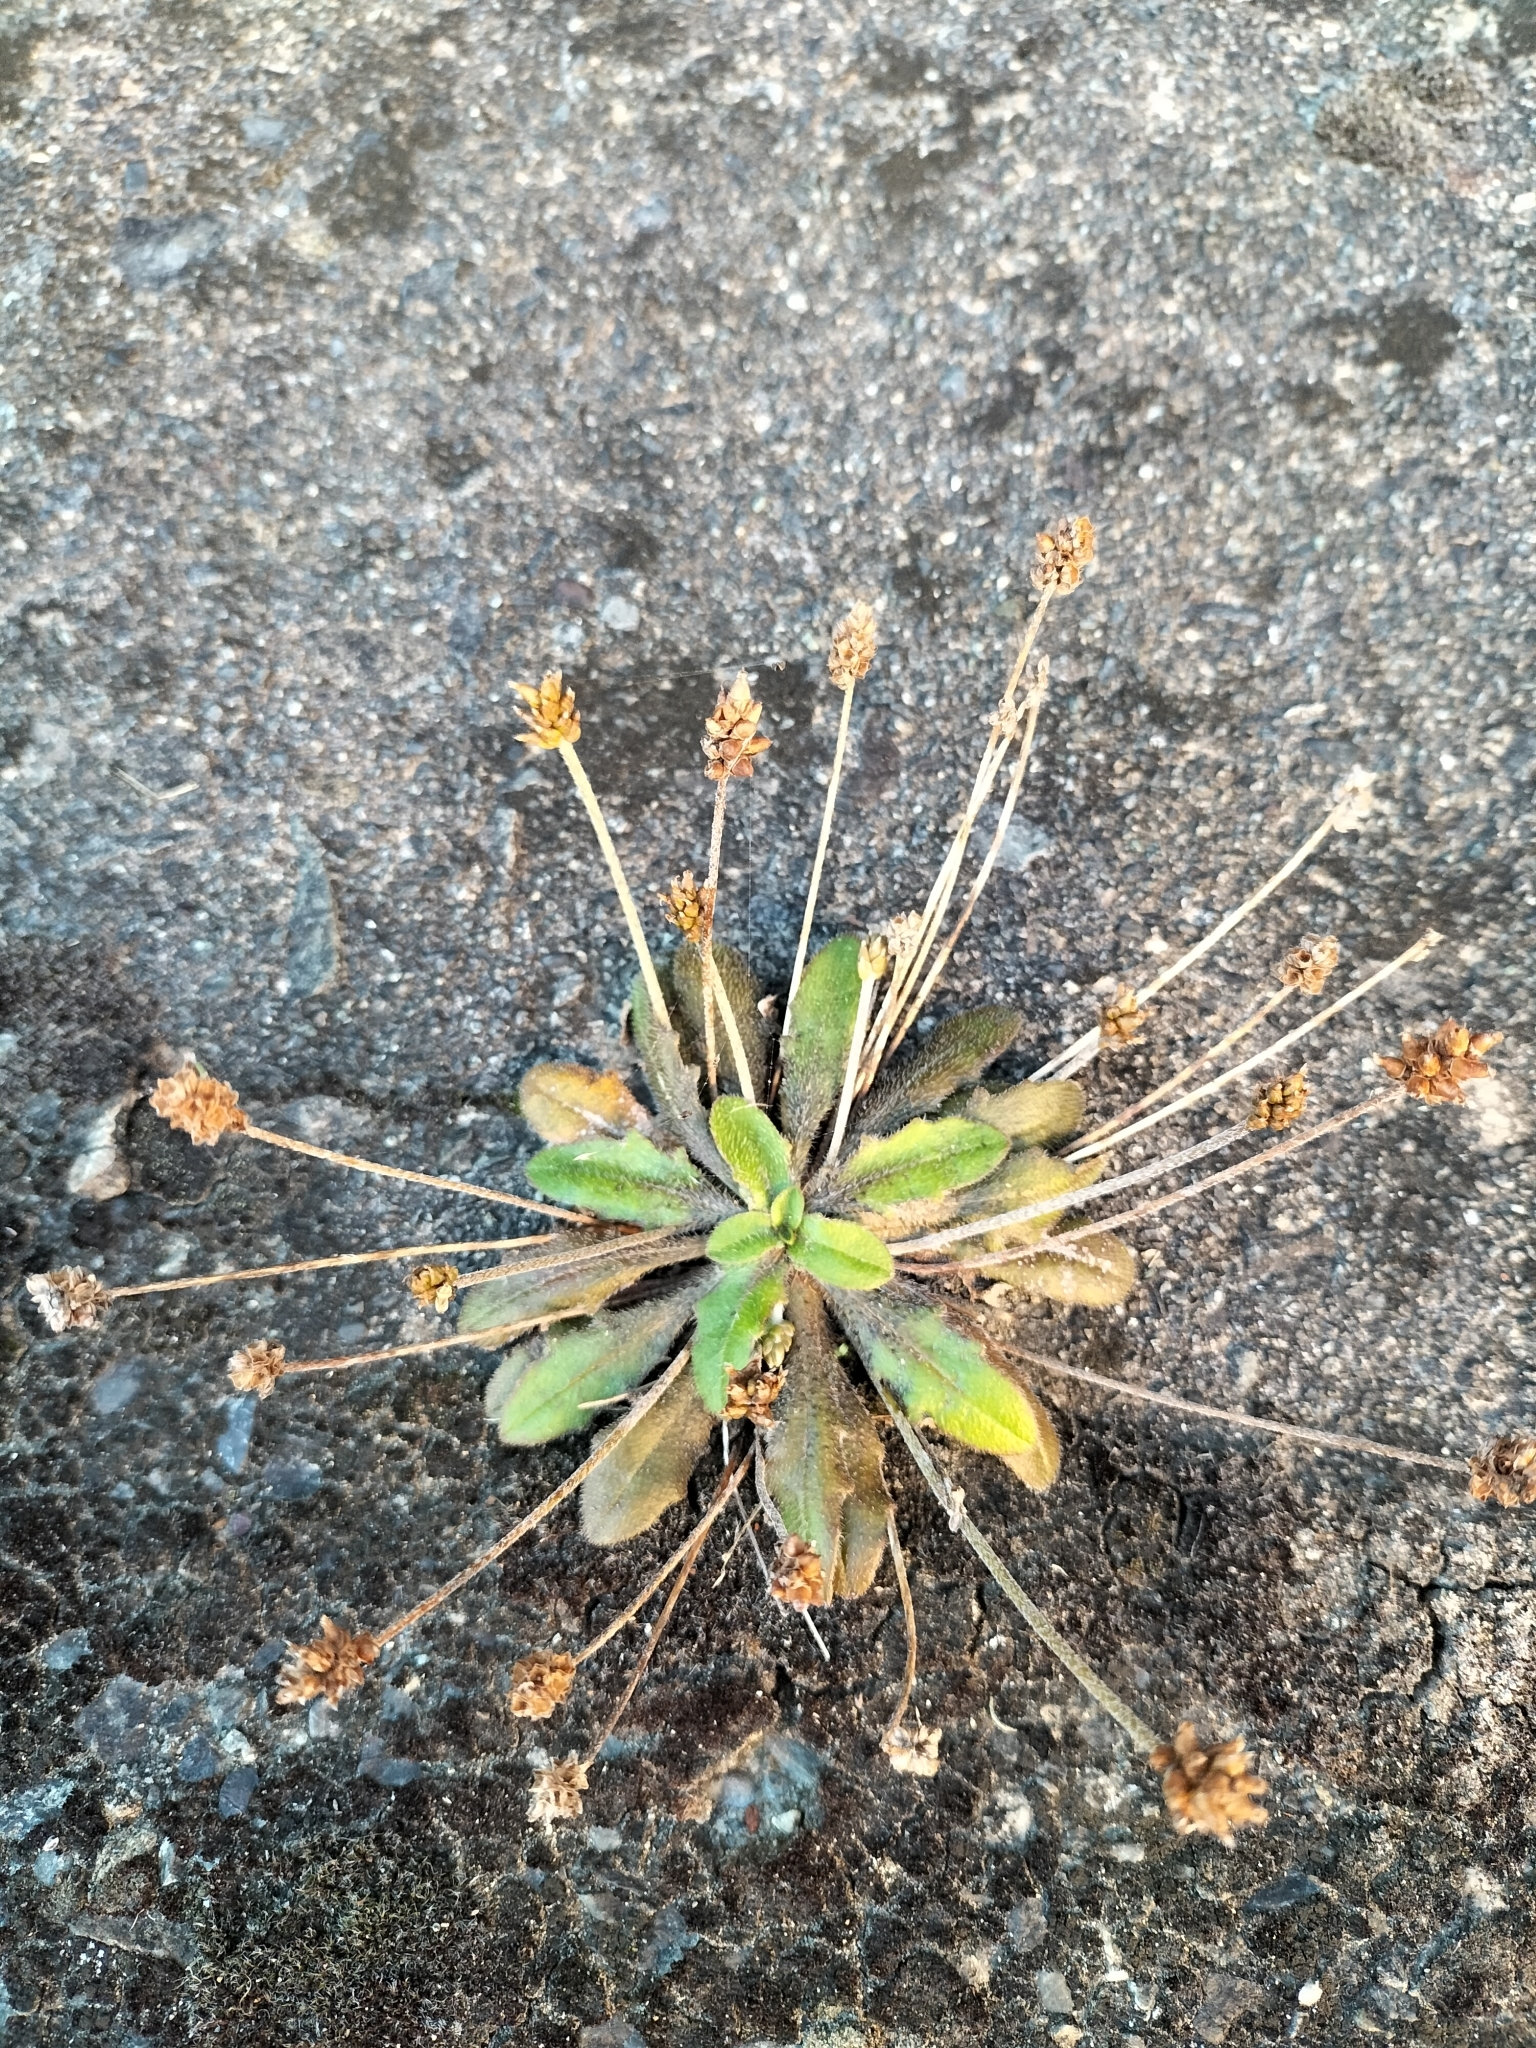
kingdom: Plantae
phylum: Tracheophyta
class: Magnoliopsida
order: Lamiales
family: Plantaginaceae
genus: Plantago
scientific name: Plantago raoulii
